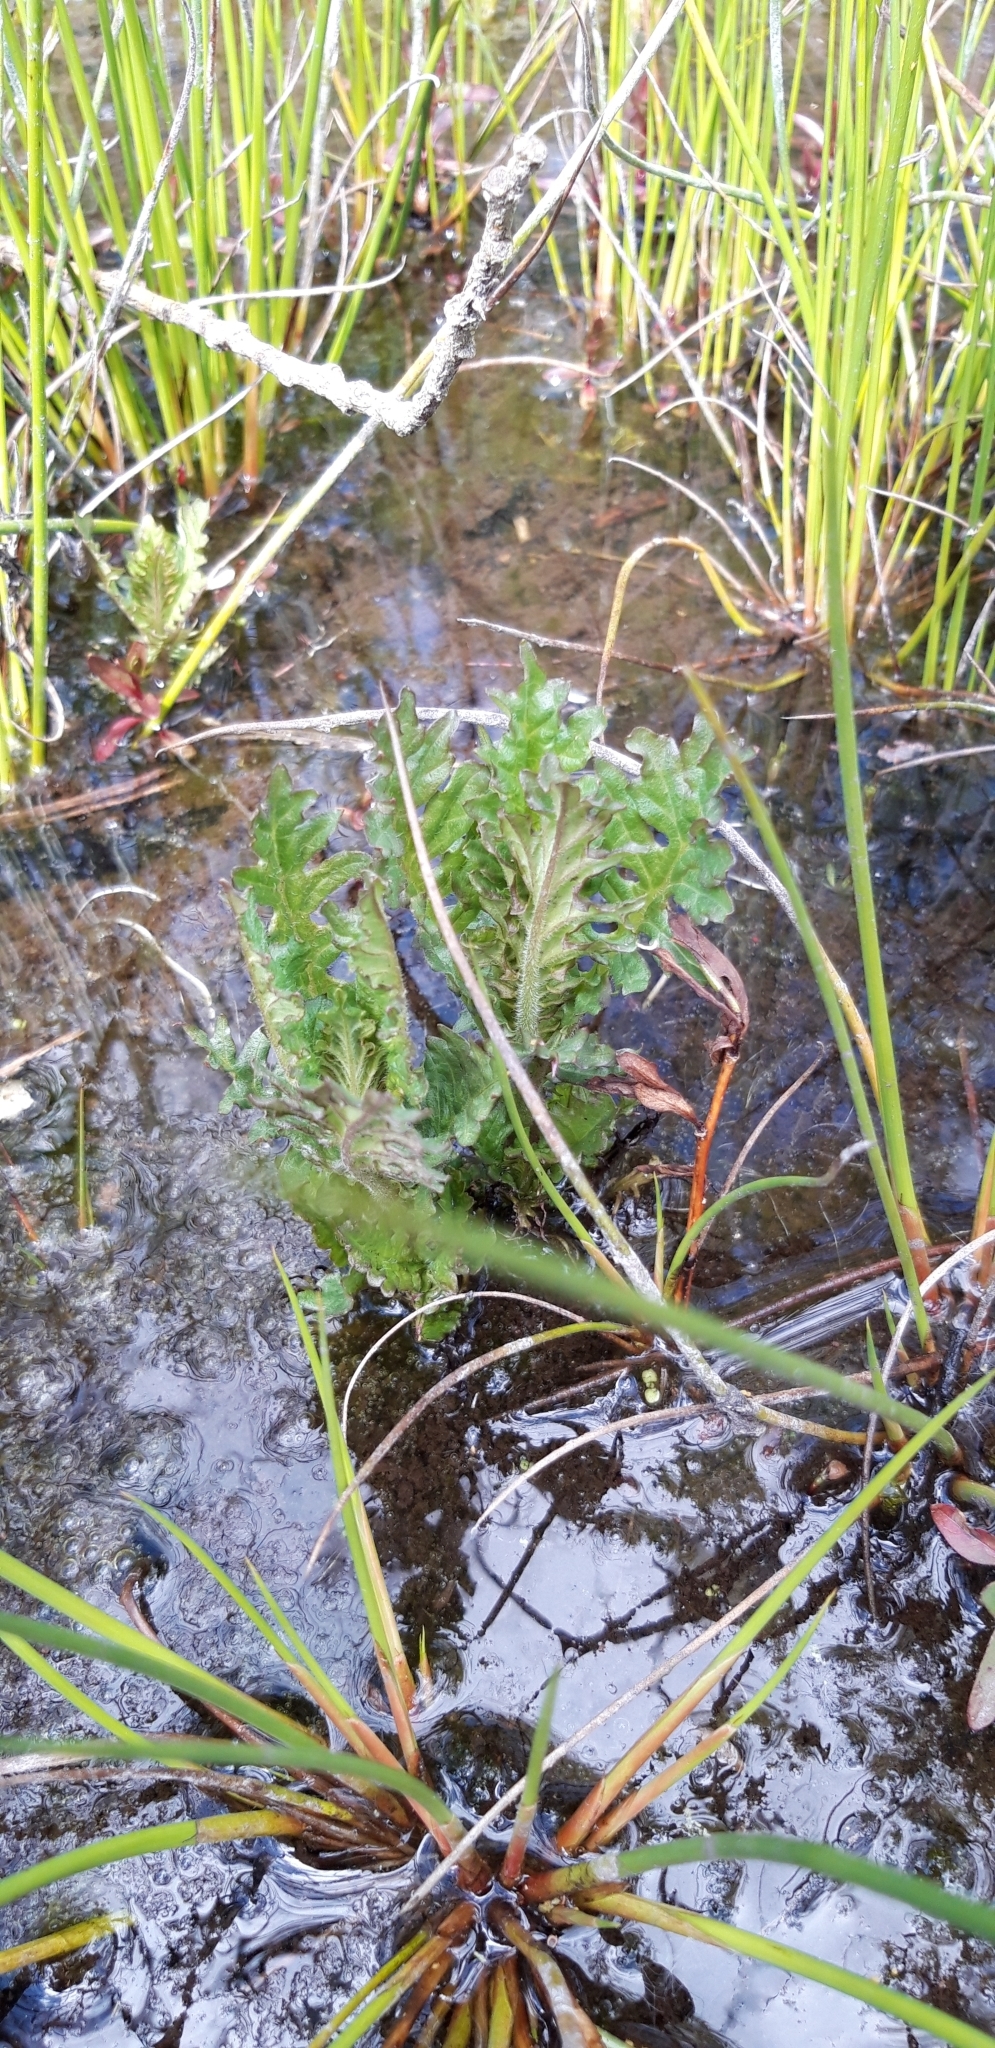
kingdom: Plantae
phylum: Tracheophyta
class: Magnoliopsida
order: Lamiales
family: Lamiaceae
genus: Lycopus
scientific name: Lycopus europaeus
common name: European bugleweed
